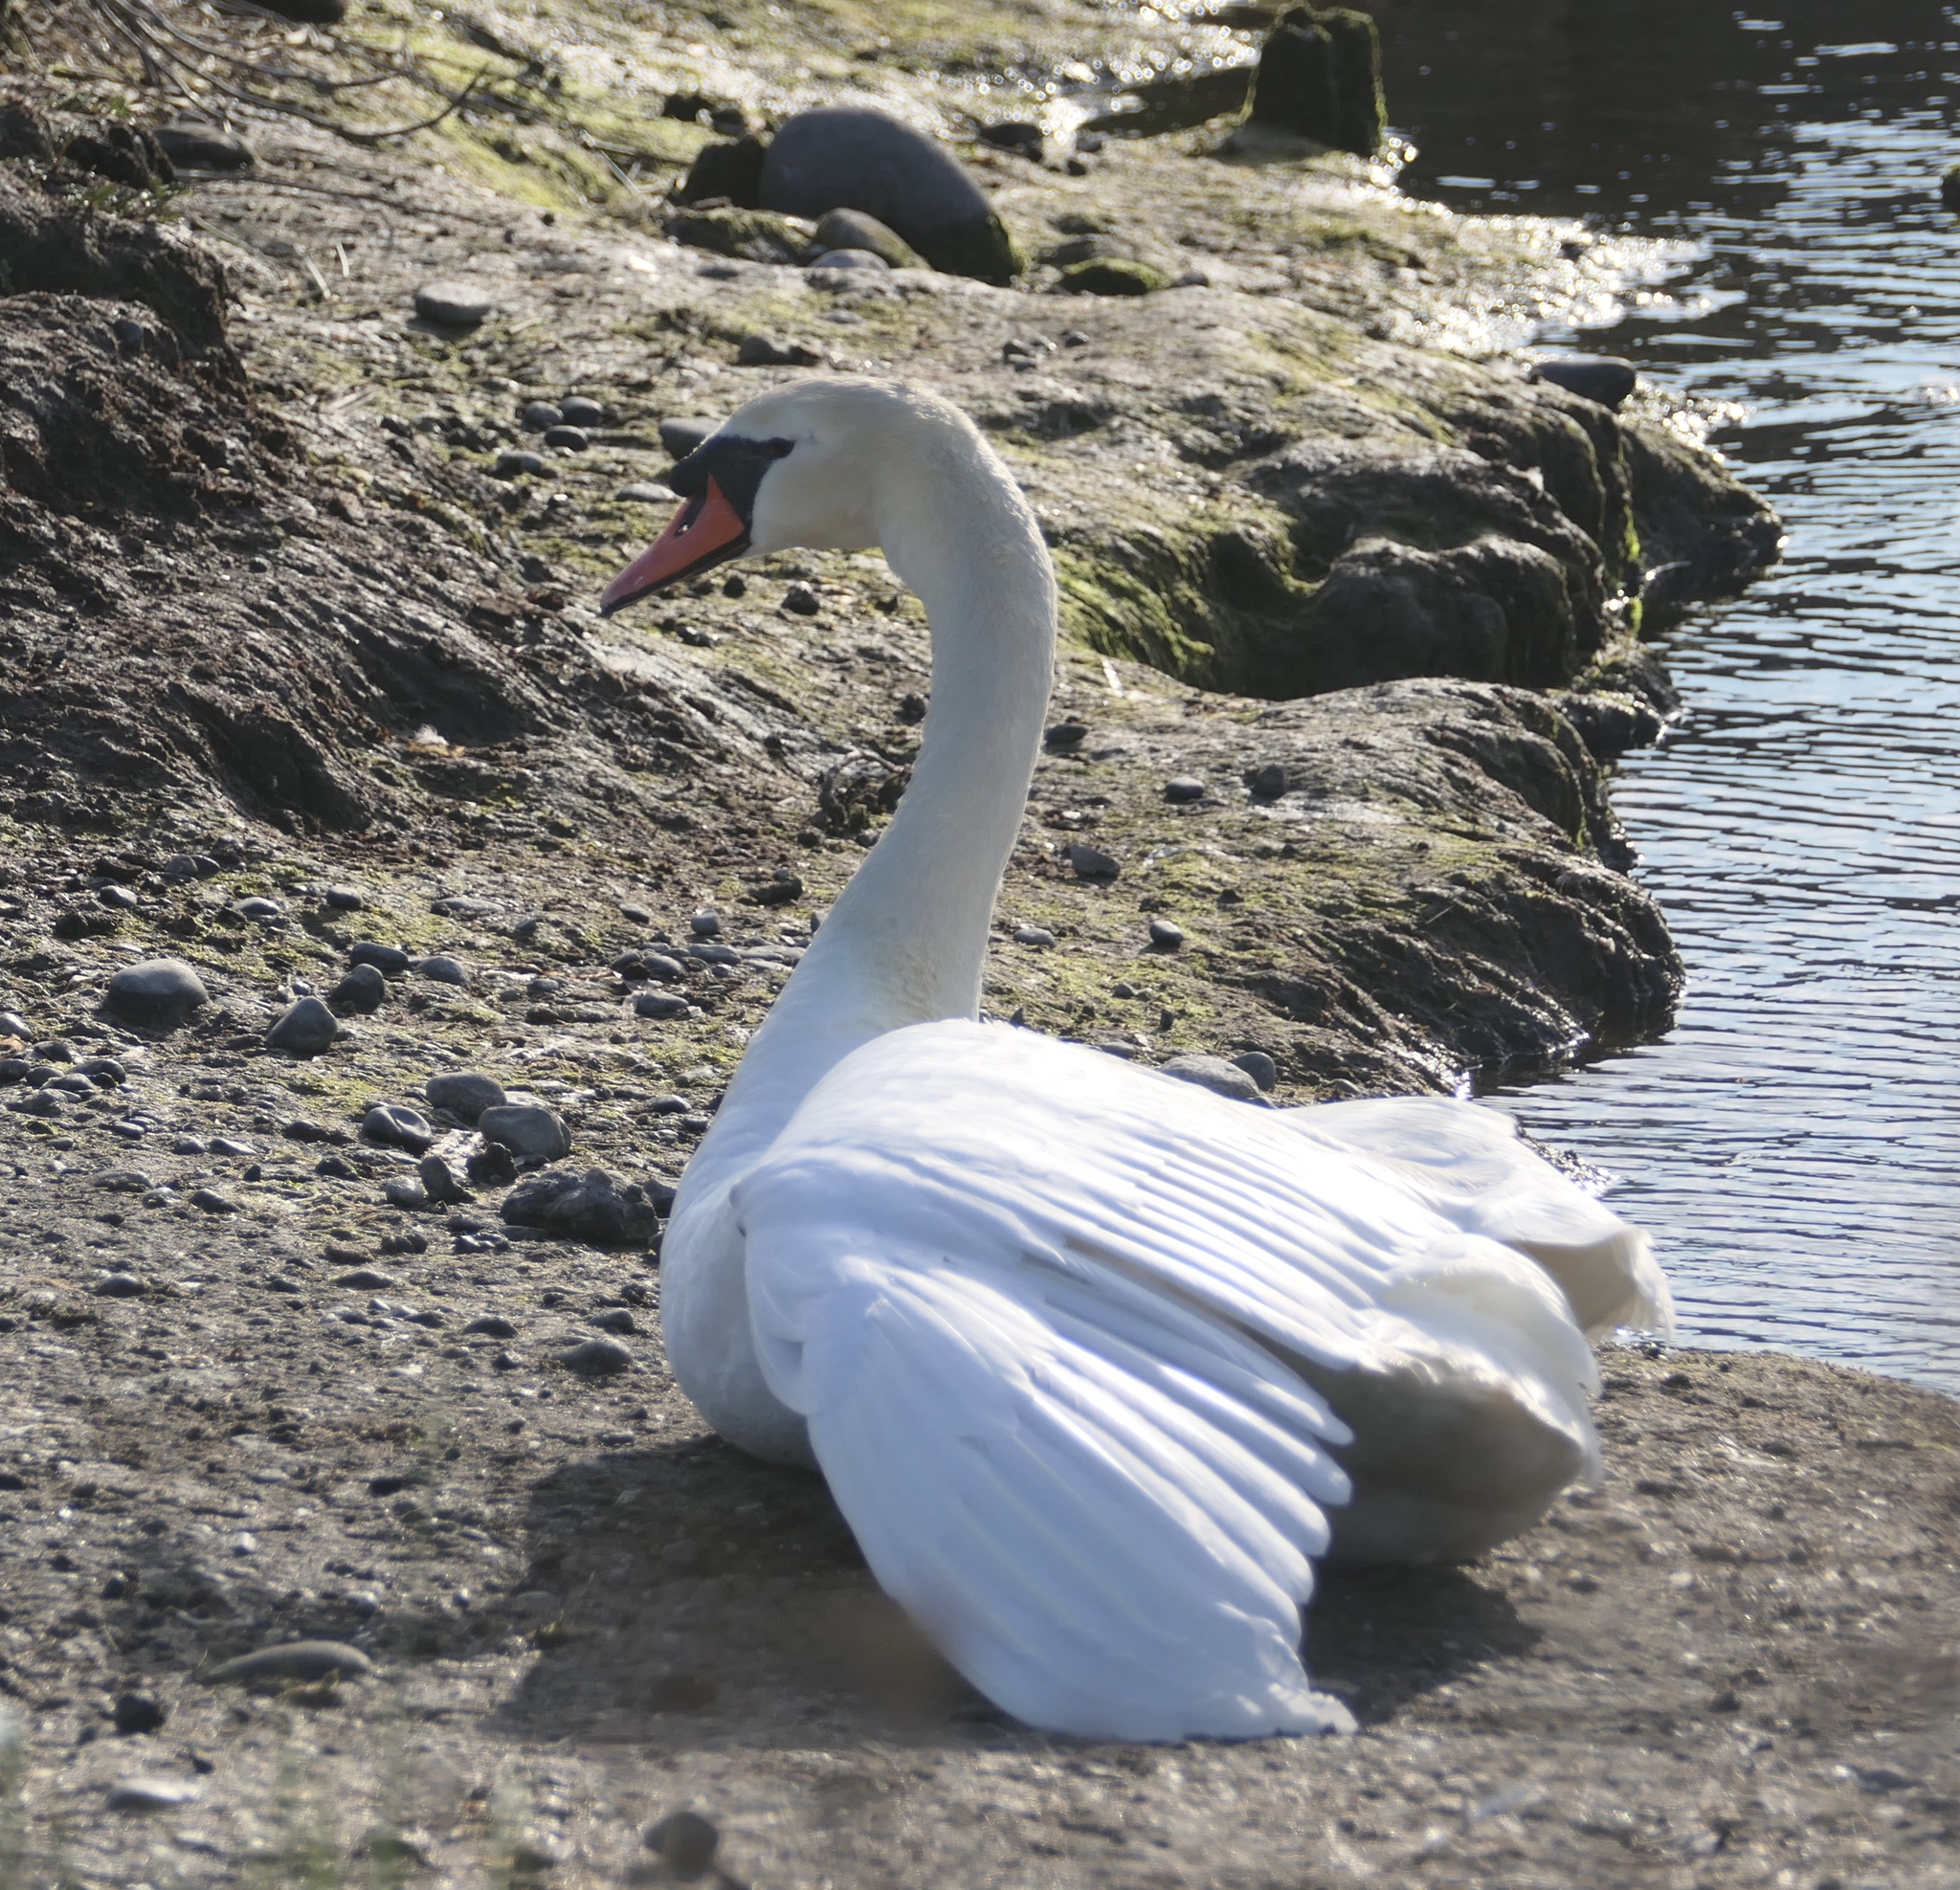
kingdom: Animalia
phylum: Chordata
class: Aves
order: Anseriformes
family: Anatidae
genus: Cygnus
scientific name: Cygnus olor
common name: Mute swan
